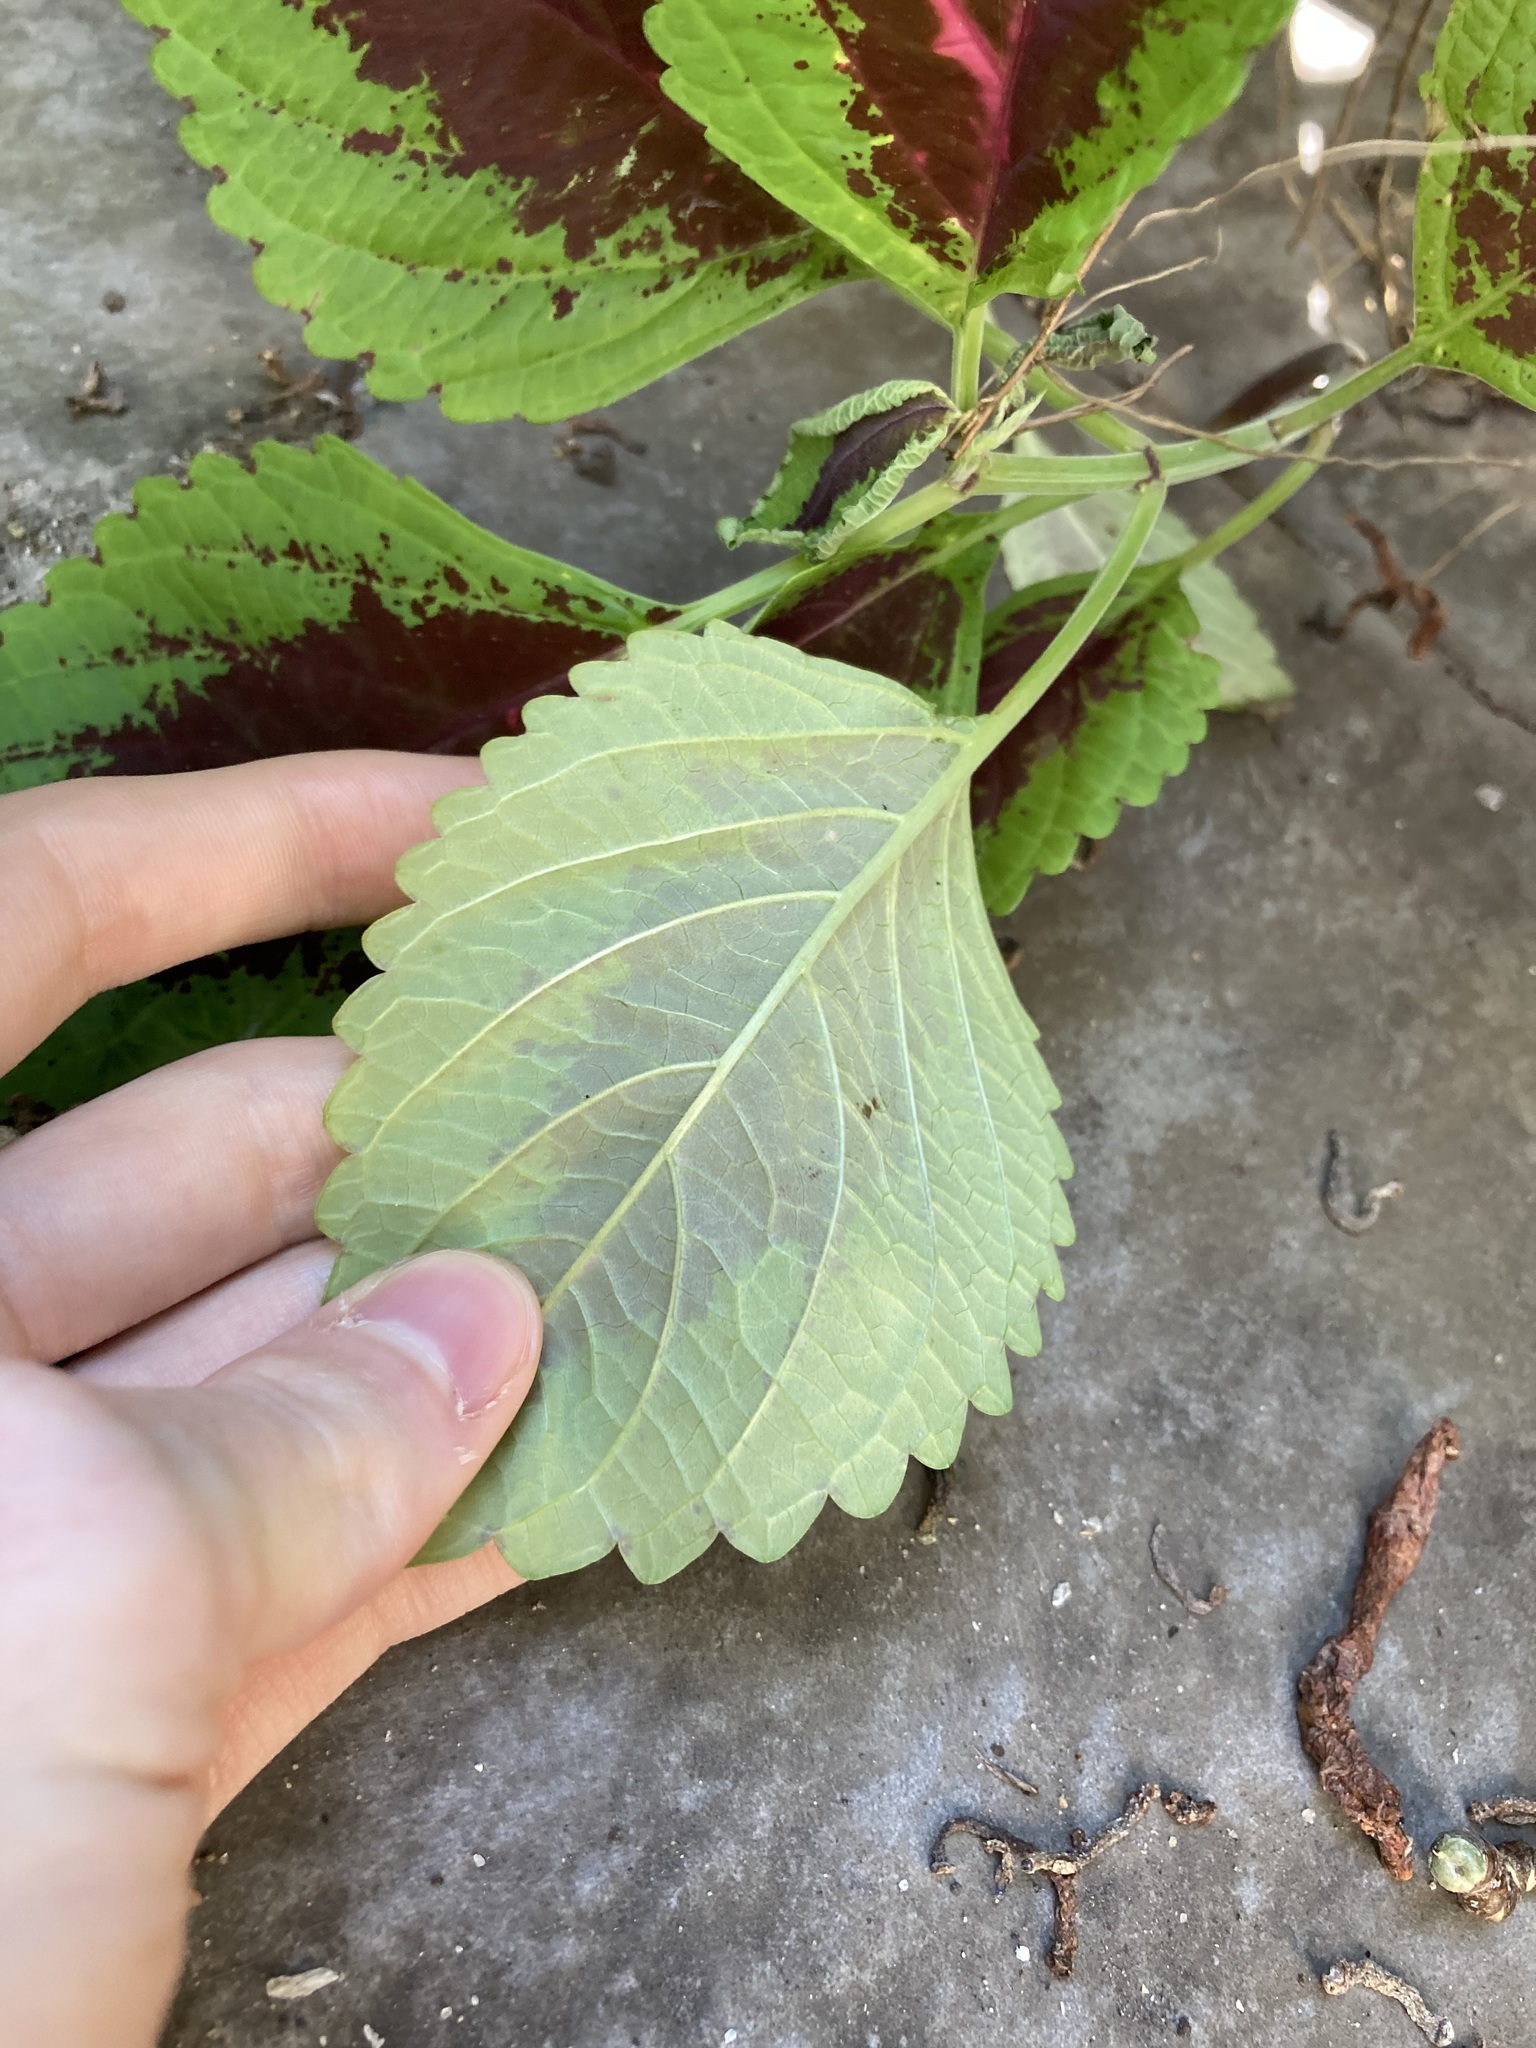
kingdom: Plantae
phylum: Tracheophyta
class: Magnoliopsida
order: Lamiales
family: Lamiaceae
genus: Coleus
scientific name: Coleus scutellarioides
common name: Coleus
